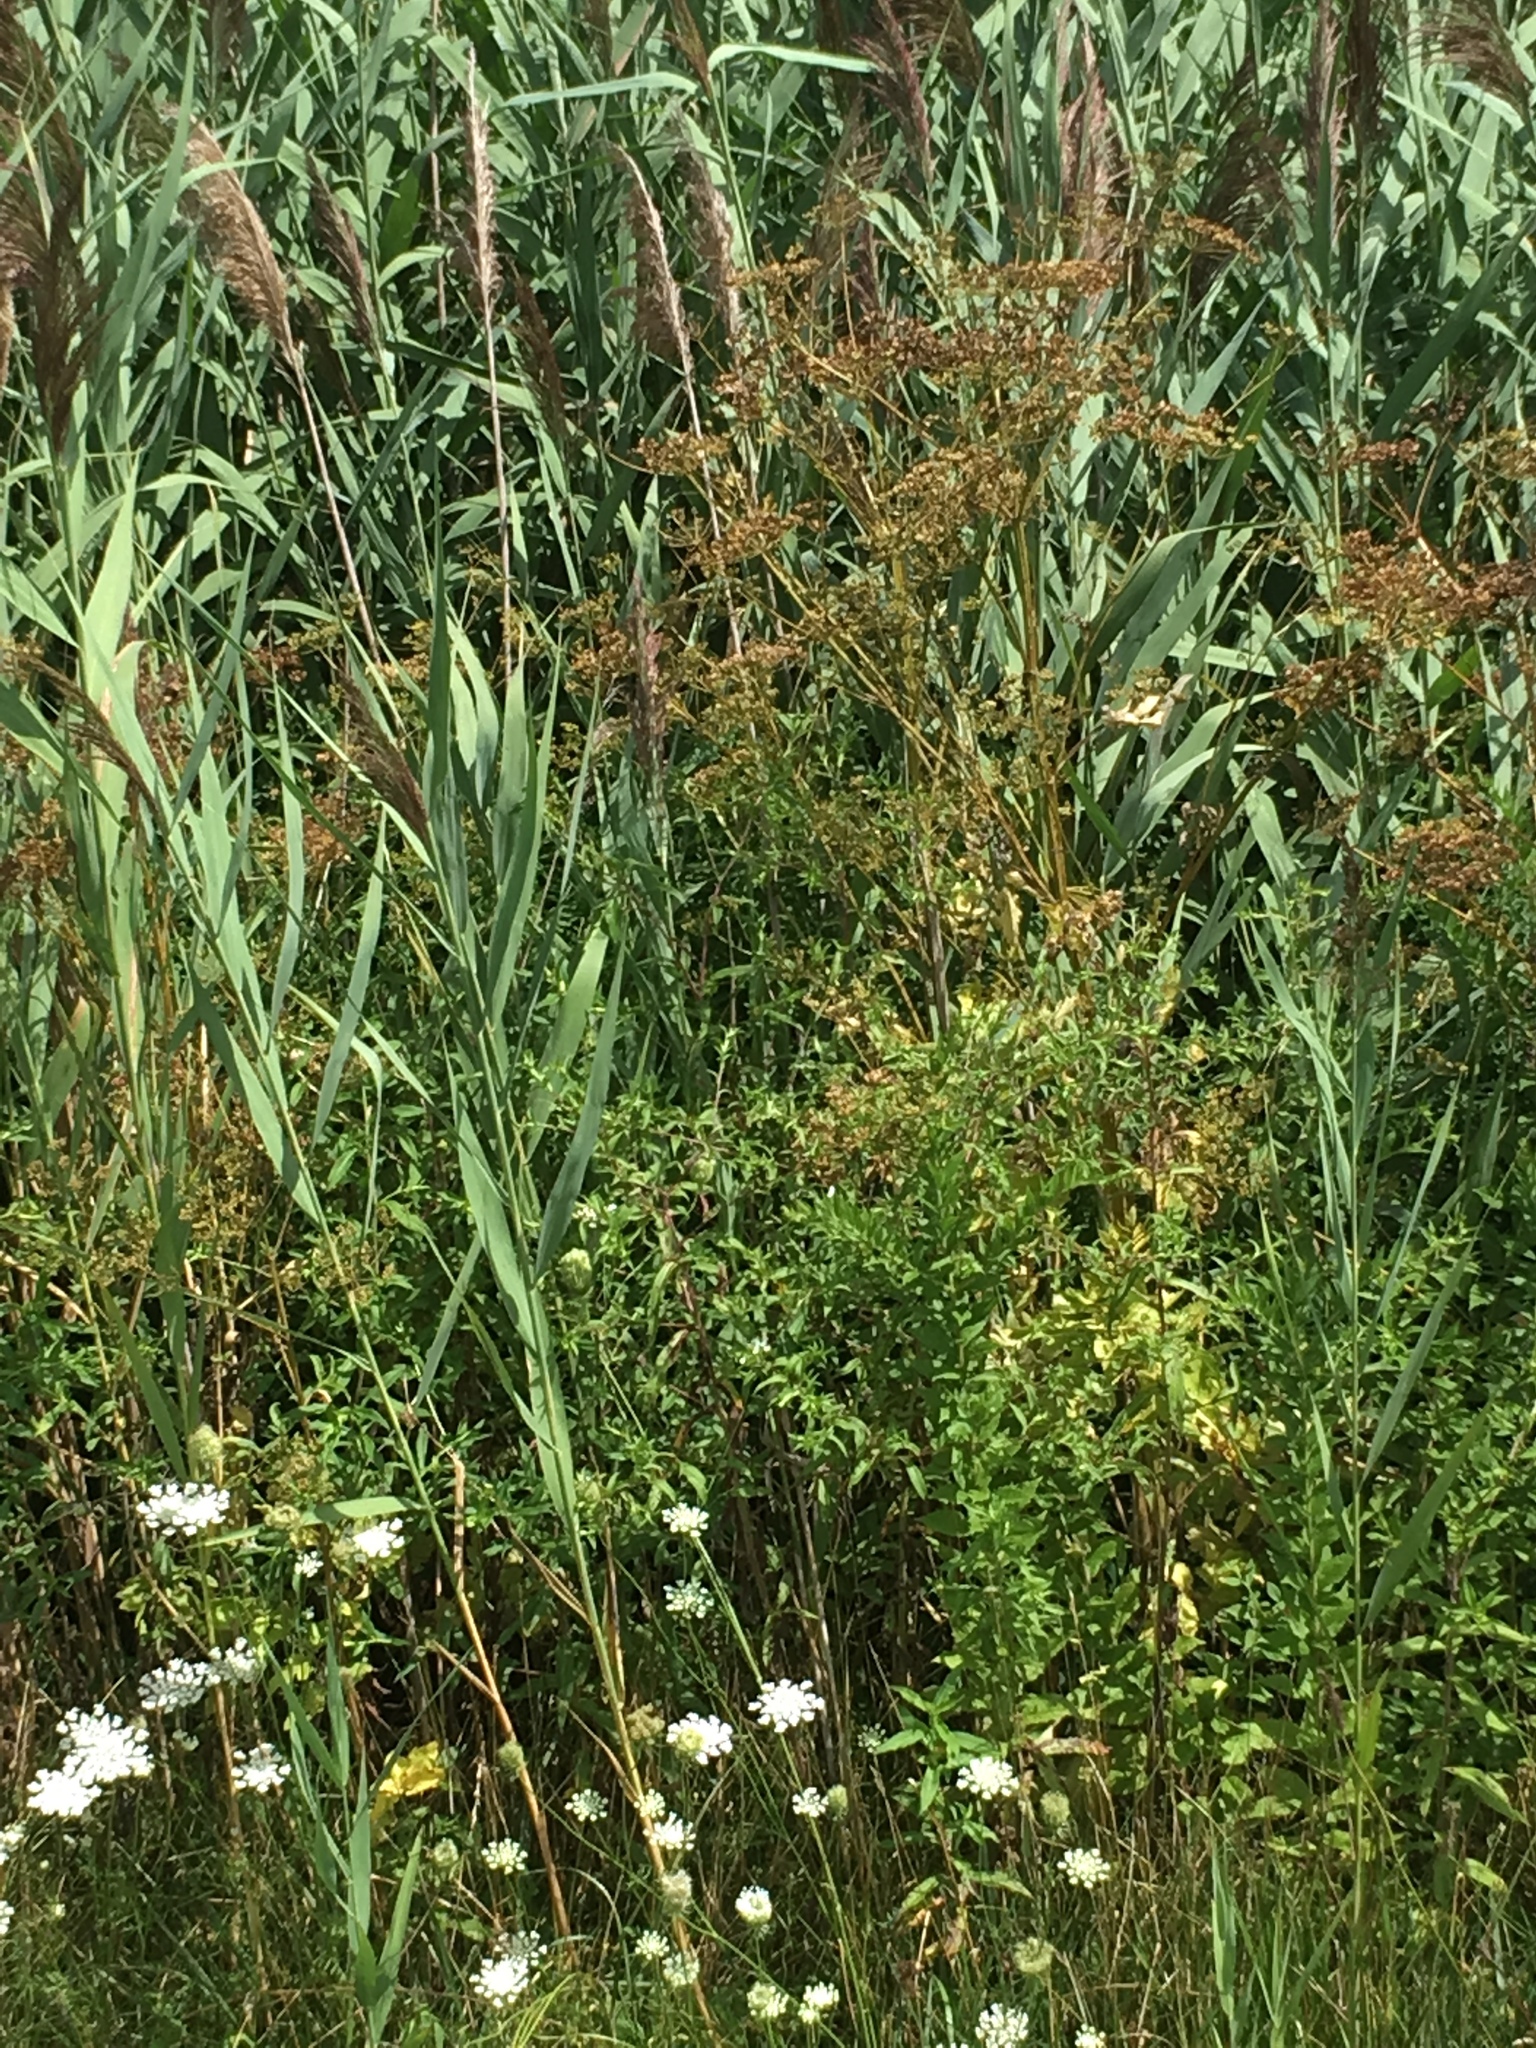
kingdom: Plantae
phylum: Tracheophyta
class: Magnoliopsida
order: Apiales
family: Apiaceae
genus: Pastinaca
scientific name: Pastinaca sativa
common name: Wild parsnip
